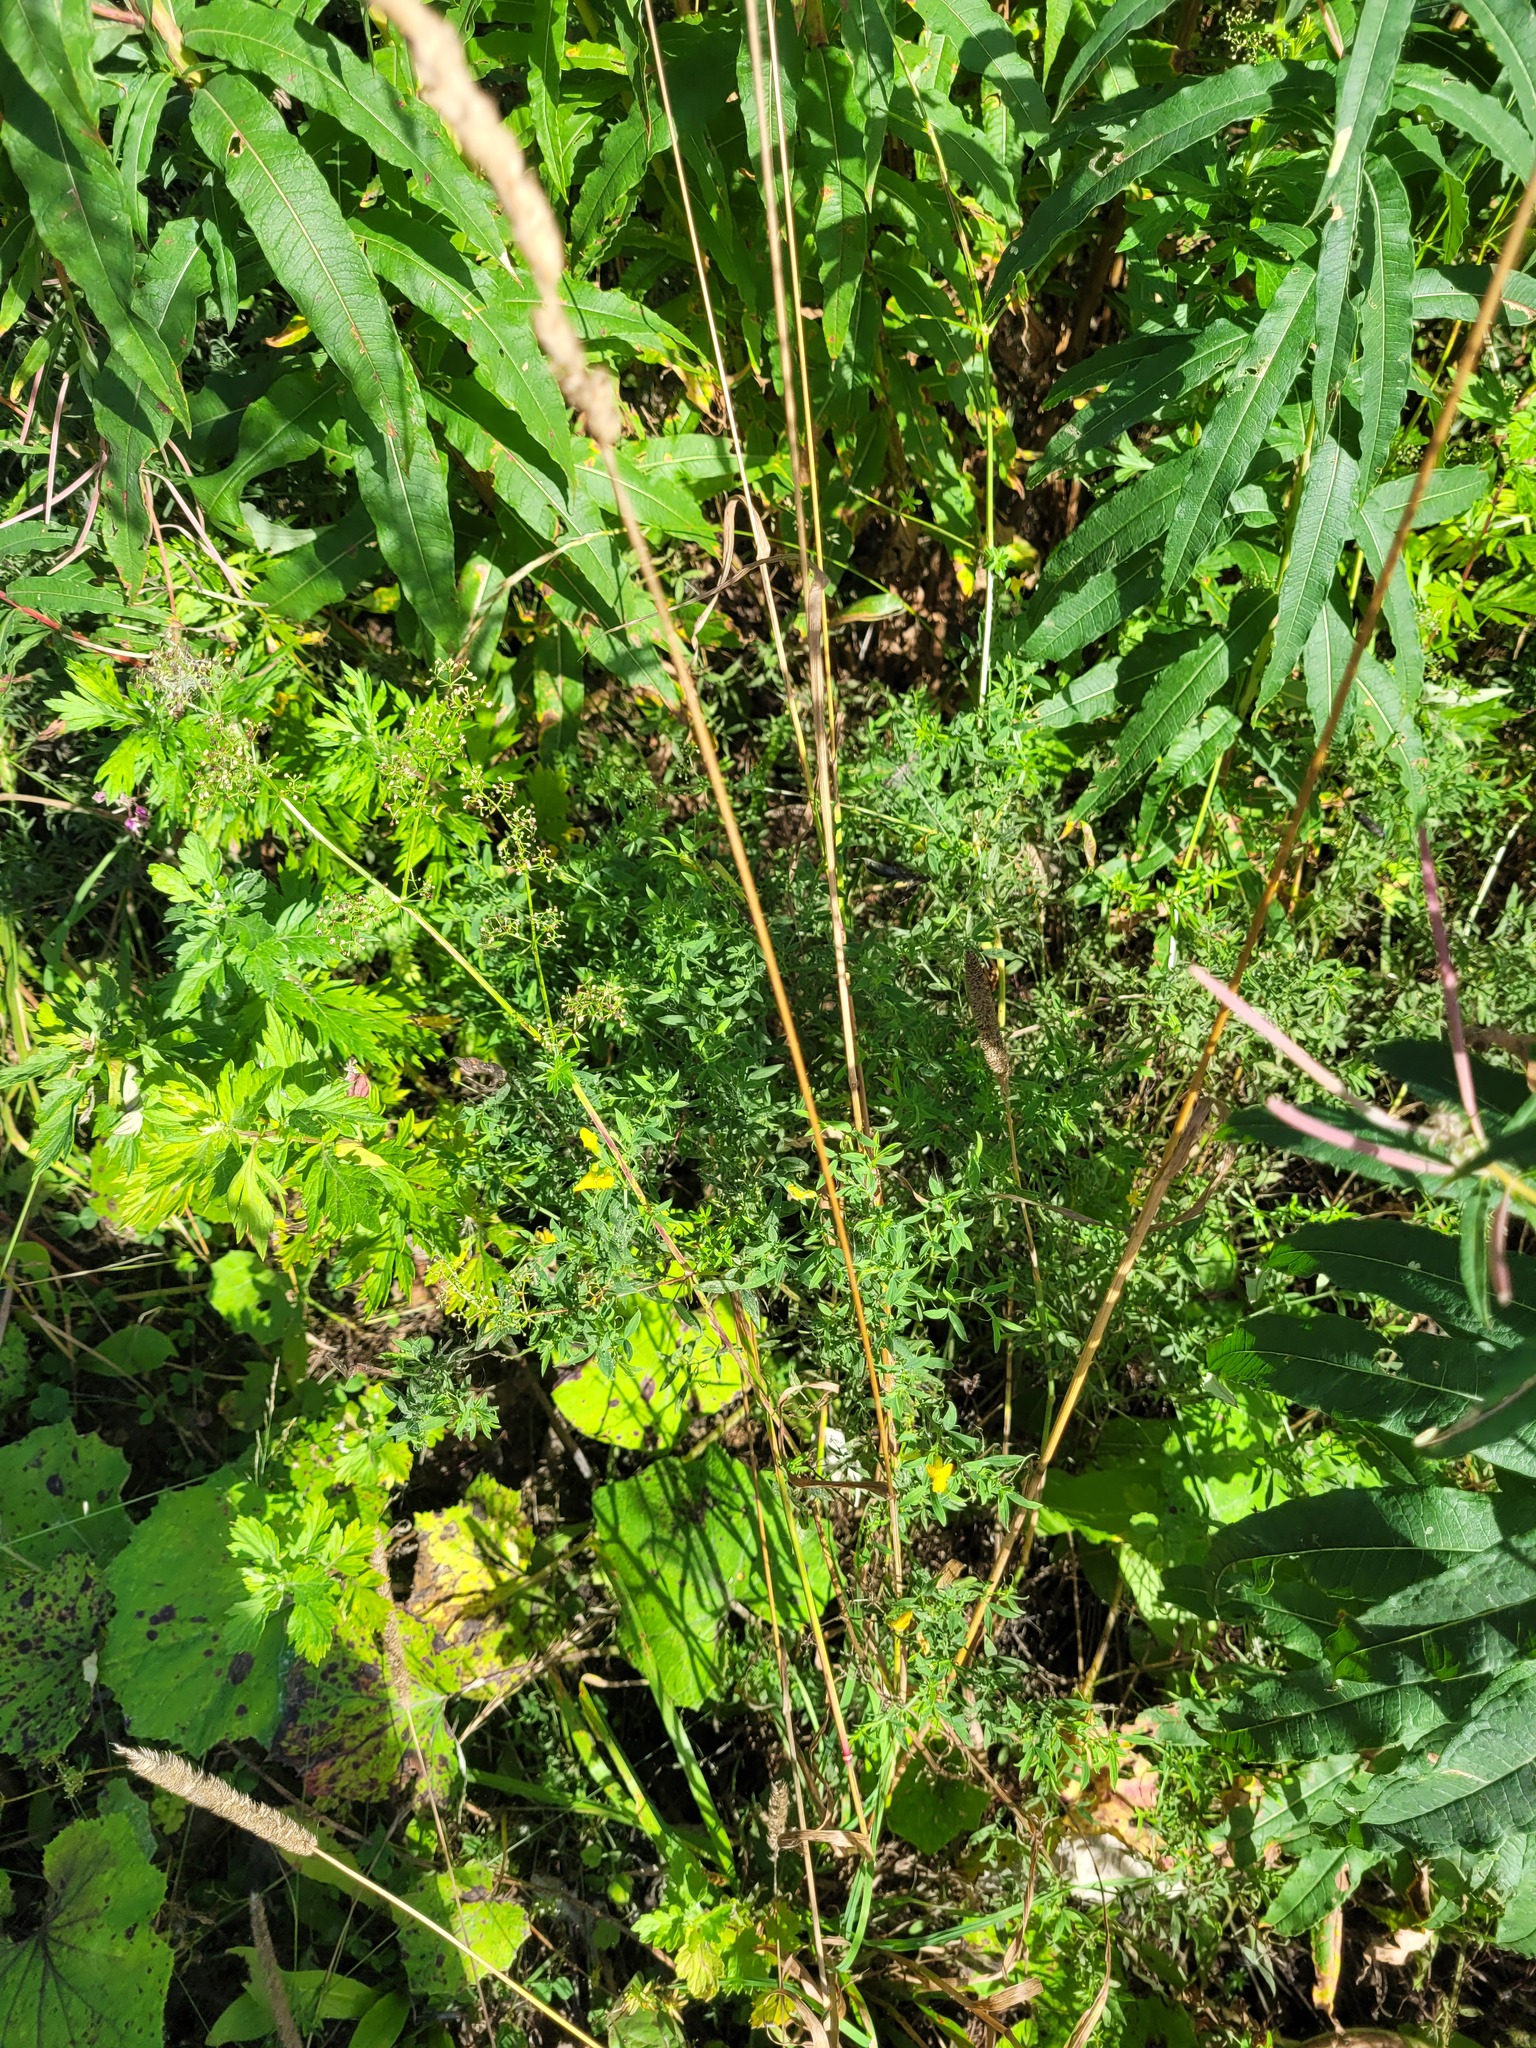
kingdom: Plantae
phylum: Tracheophyta
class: Magnoliopsida
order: Fabales
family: Fabaceae
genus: Lathyrus
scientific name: Lathyrus pratensis
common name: Meadow vetchling
